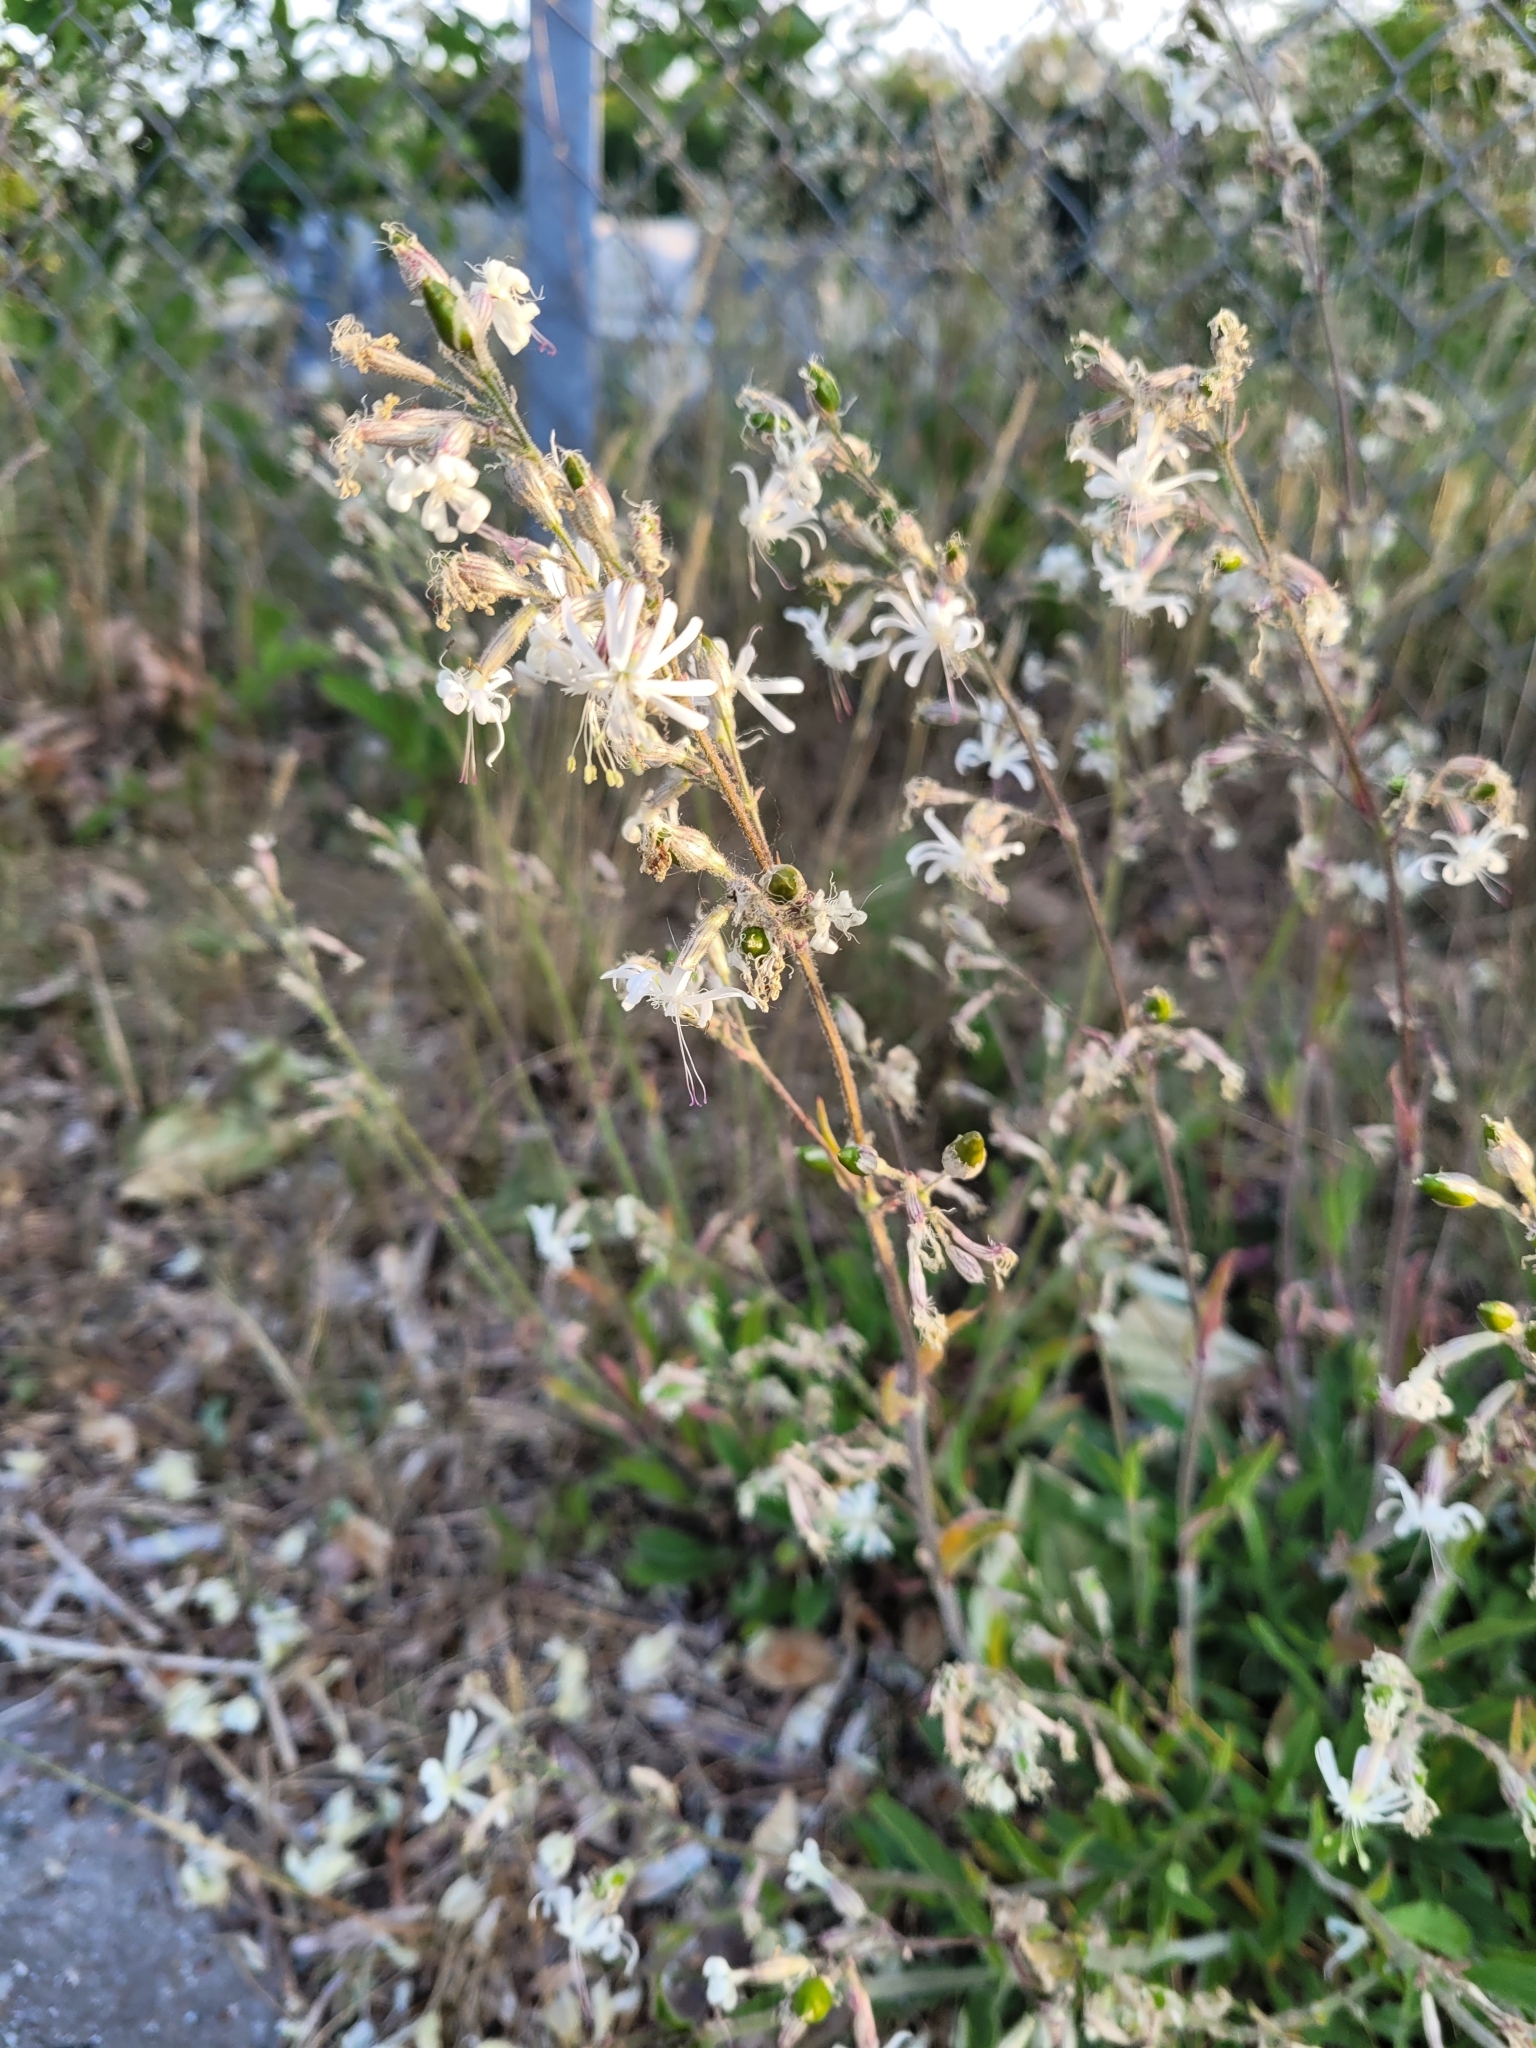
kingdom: Plantae
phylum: Tracheophyta
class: Magnoliopsida
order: Caryophyllales
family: Caryophyllaceae
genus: Silene
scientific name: Silene nutans
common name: Nottingham catchfly
